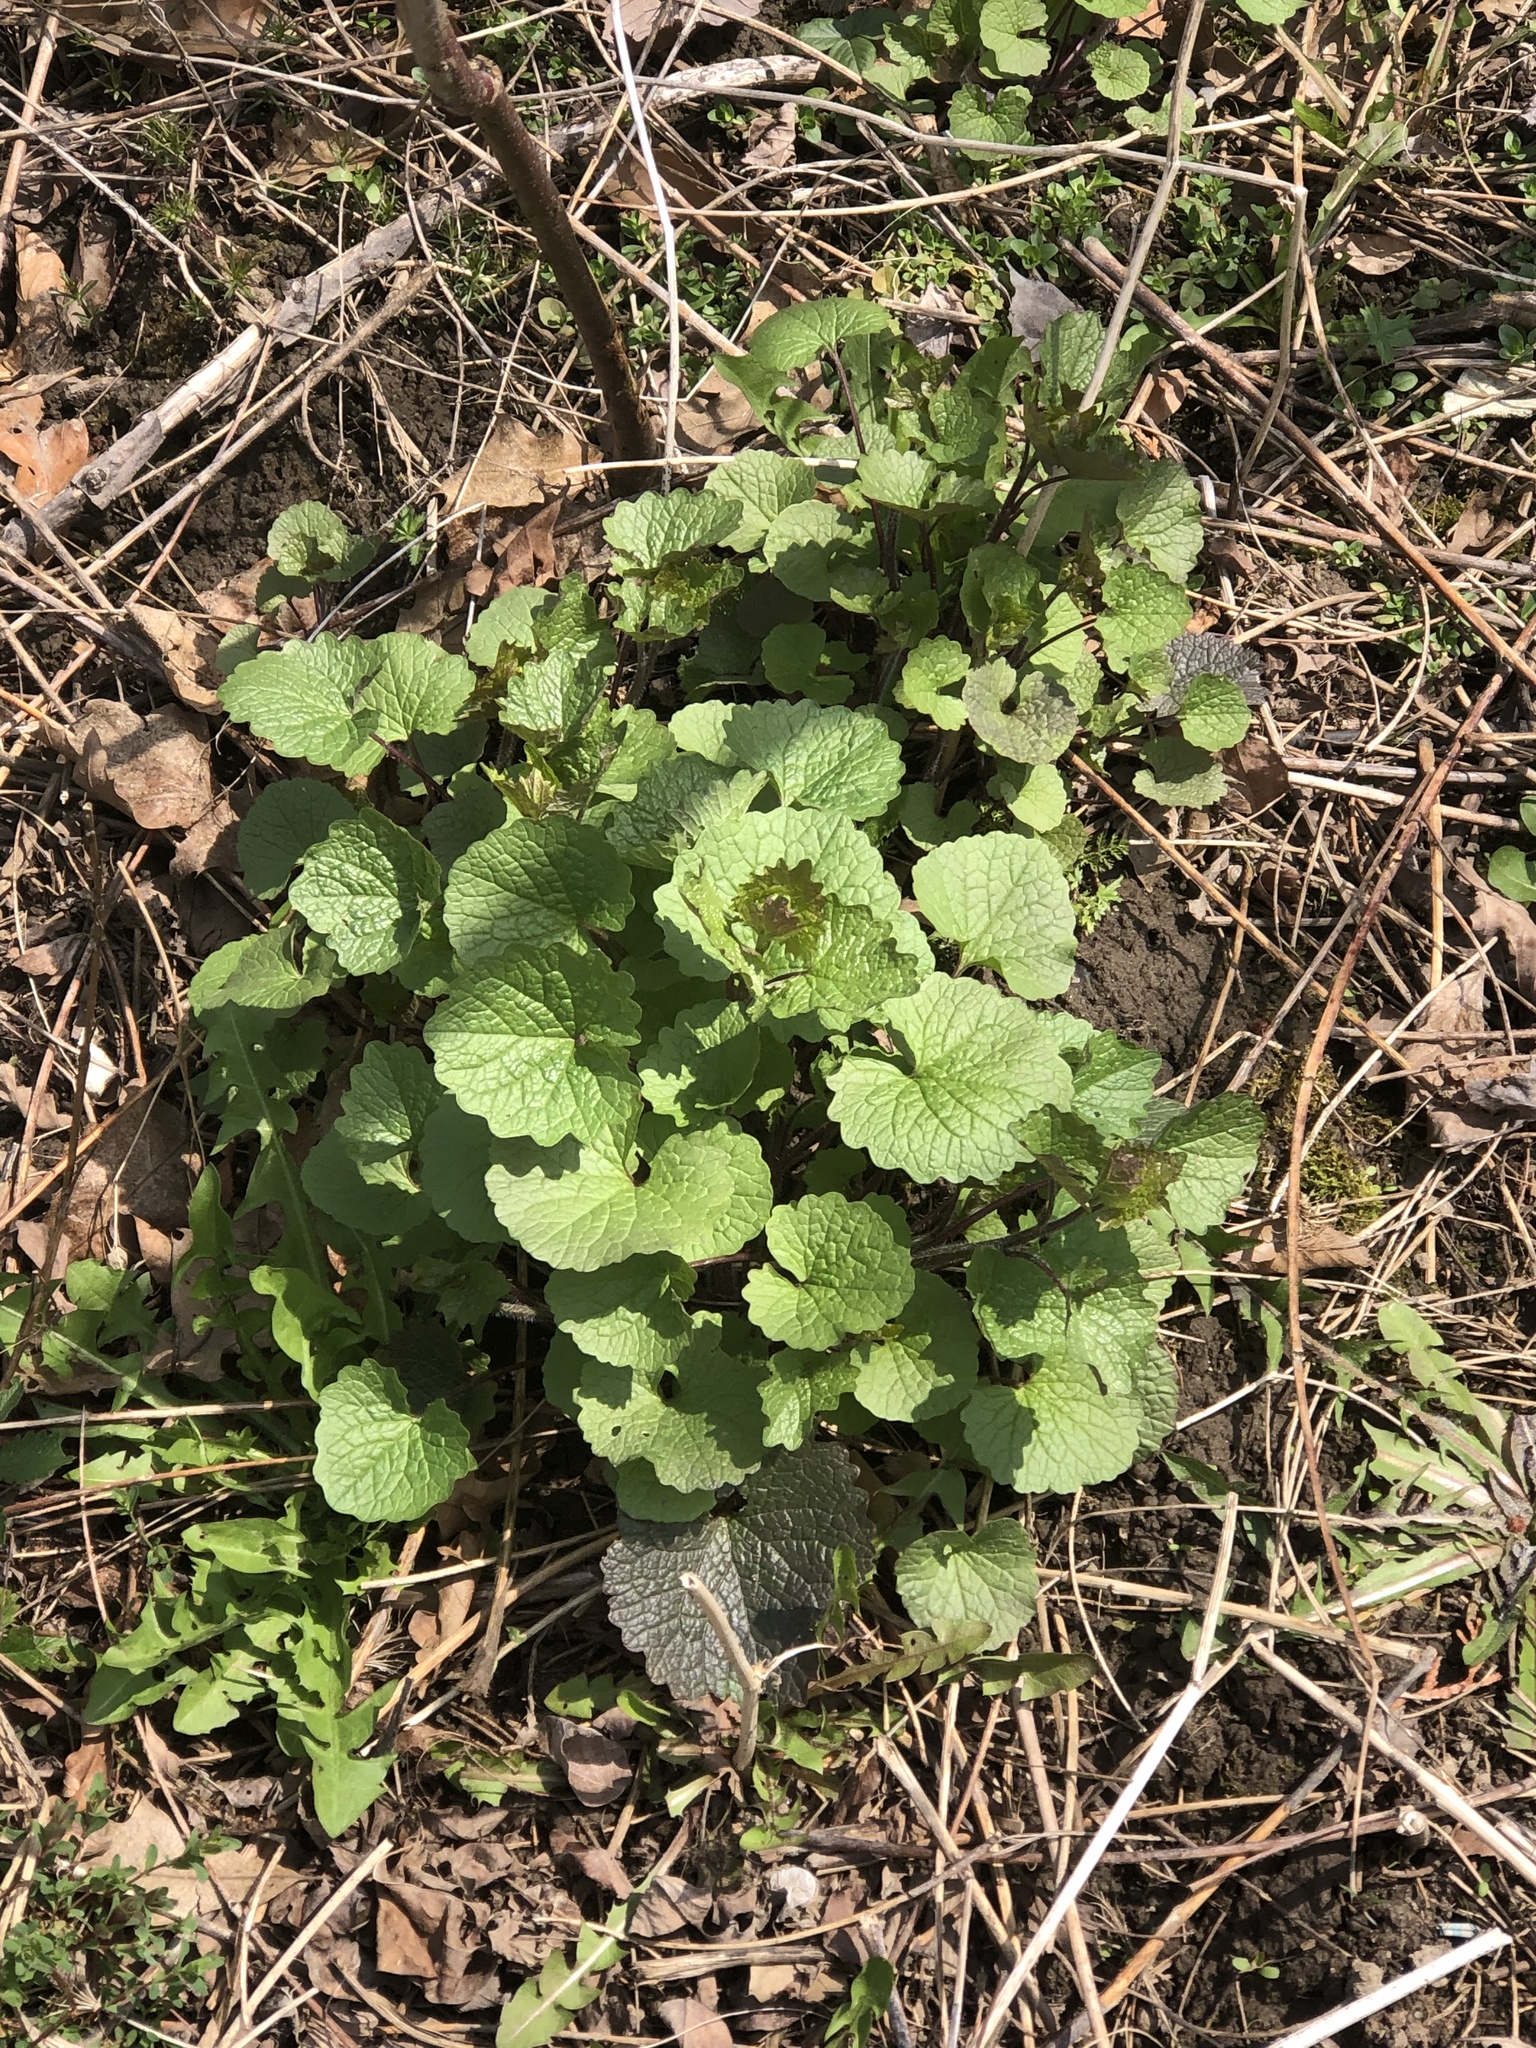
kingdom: Plantae
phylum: Tracheophyta
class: Magnoliopsida
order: Brassicales
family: Brassicaceae
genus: Alliaria
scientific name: Alliaria petiolata
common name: Garlic mustard
